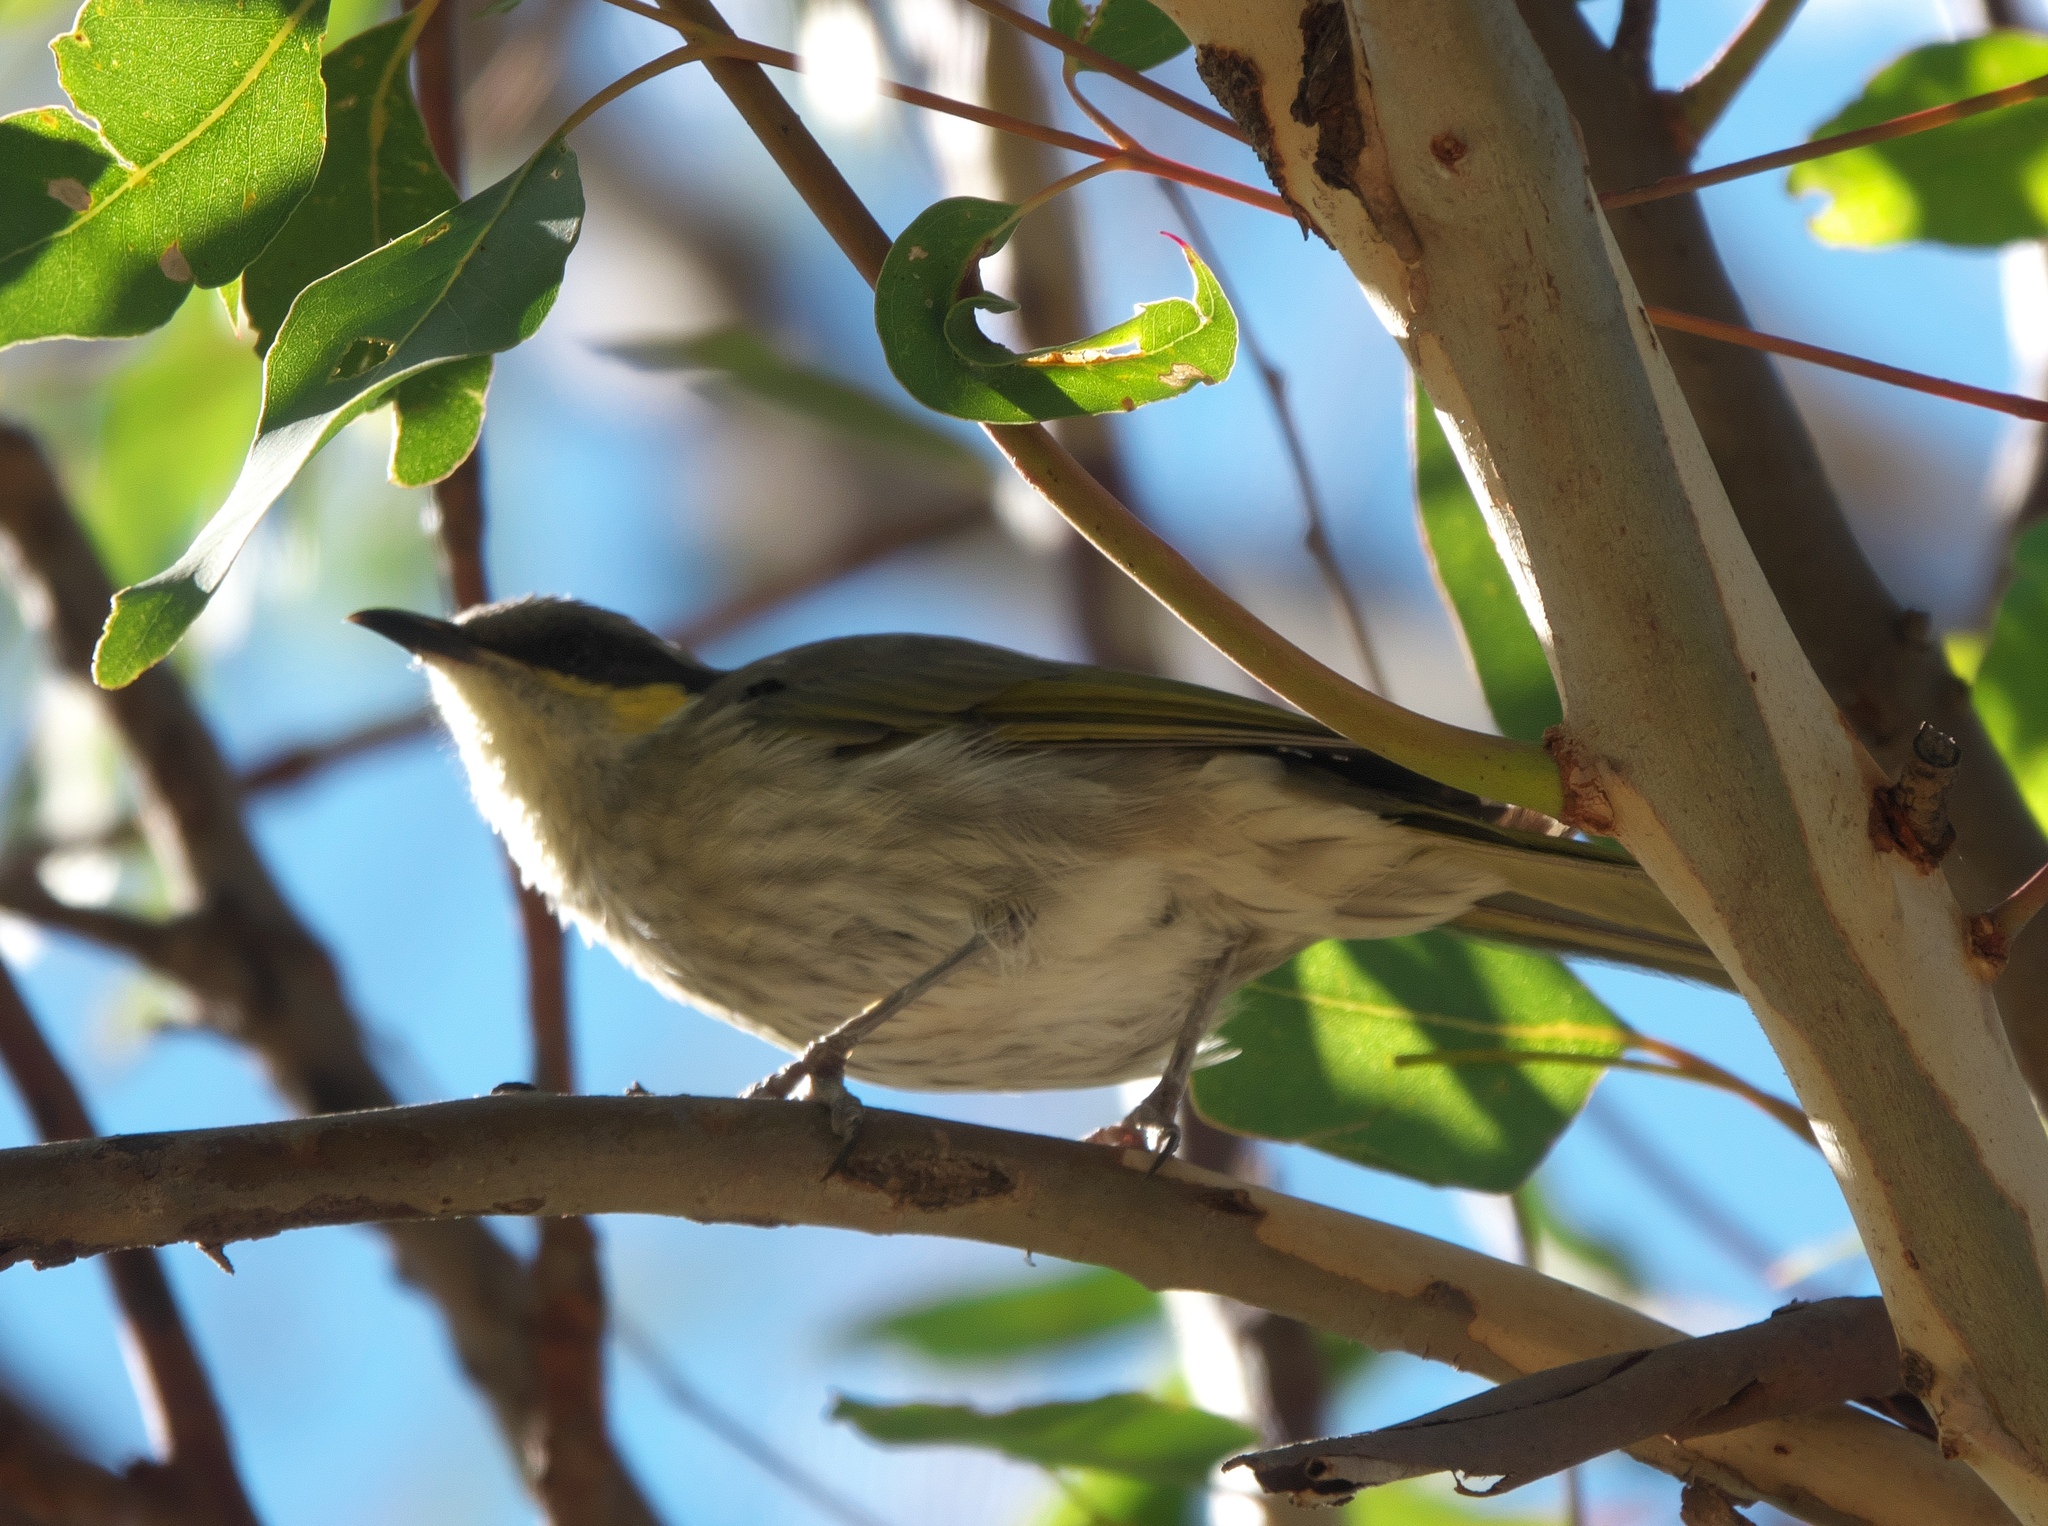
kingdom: Animalia
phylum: Chordata
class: Aves
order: Passeriformes
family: Meliphagidae
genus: Gavicalis
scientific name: Gavicalis virescens
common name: Singing honeyeater
